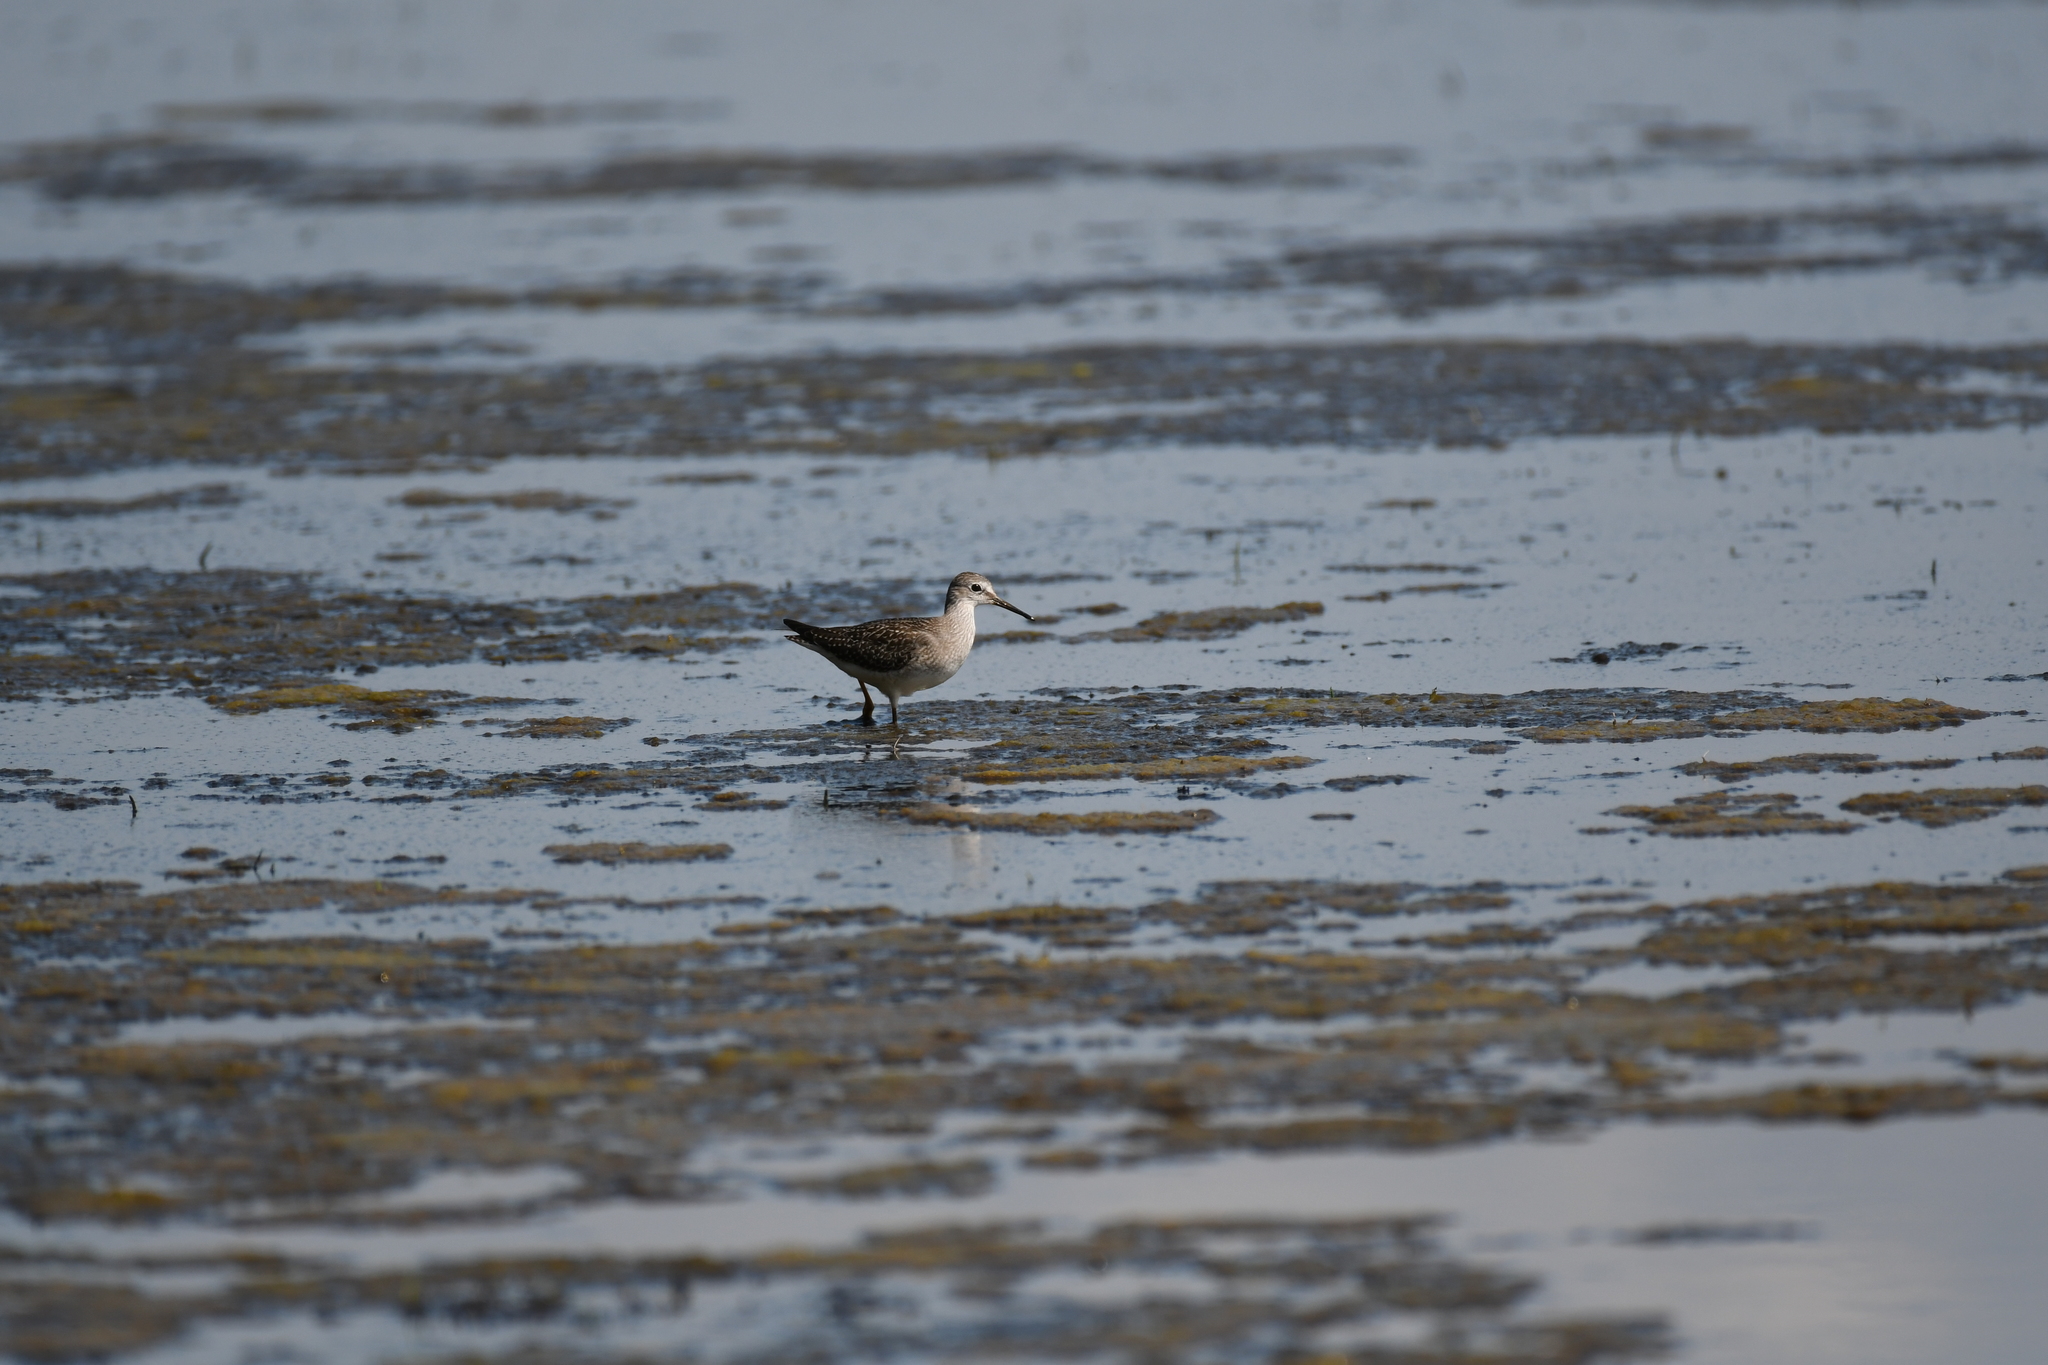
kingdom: Animalia
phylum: Chordata
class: Aves
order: Charadriiformes
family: Scolopacidae
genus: Tringa
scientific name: Tringa flavipes
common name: Lesser yellowlegs
